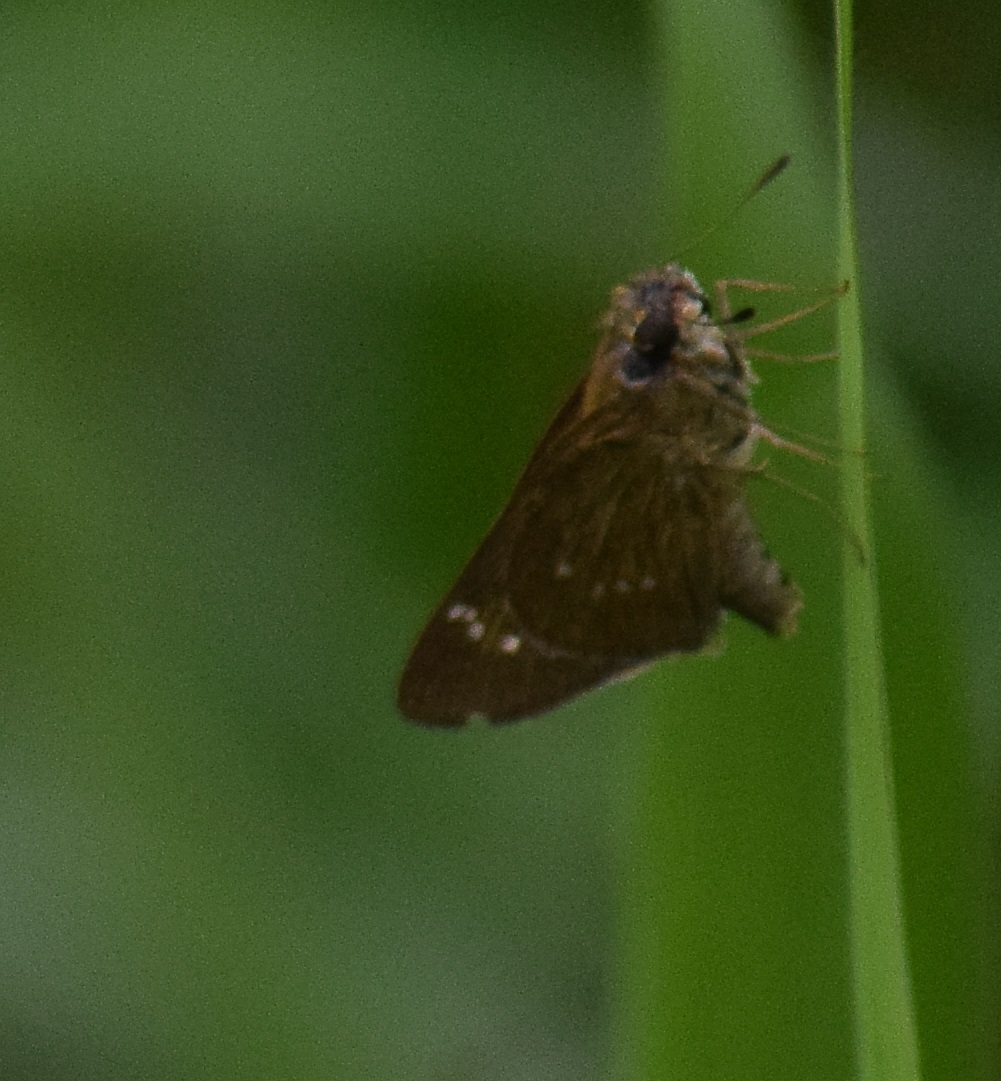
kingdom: Animalia
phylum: Arthropoda
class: Insecta
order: Lepidoptera
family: Hesperiidae
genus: Borbo
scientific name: Borbo cinnara
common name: Formosan swift
